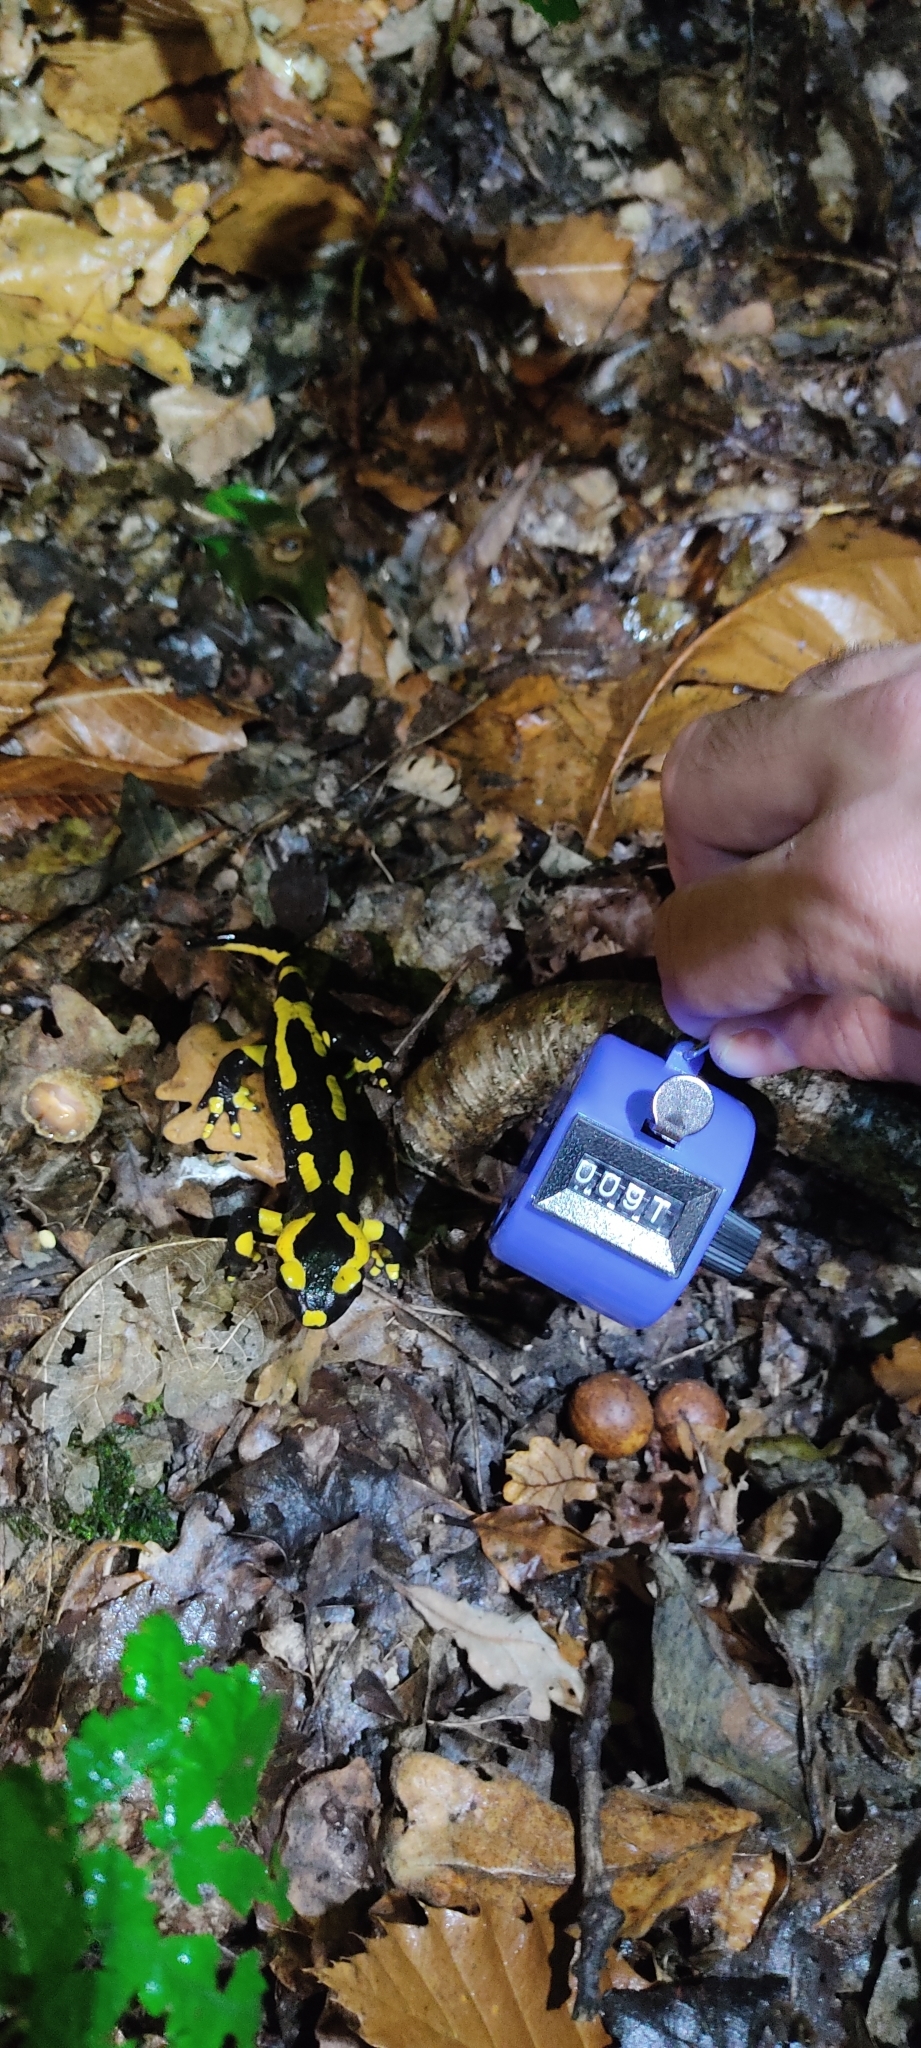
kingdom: Animalia
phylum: Chordata
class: Amphibia
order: Caudata
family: Salamandridae
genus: Salamandra
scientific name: Salamandra salamandra
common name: Fire salamander
